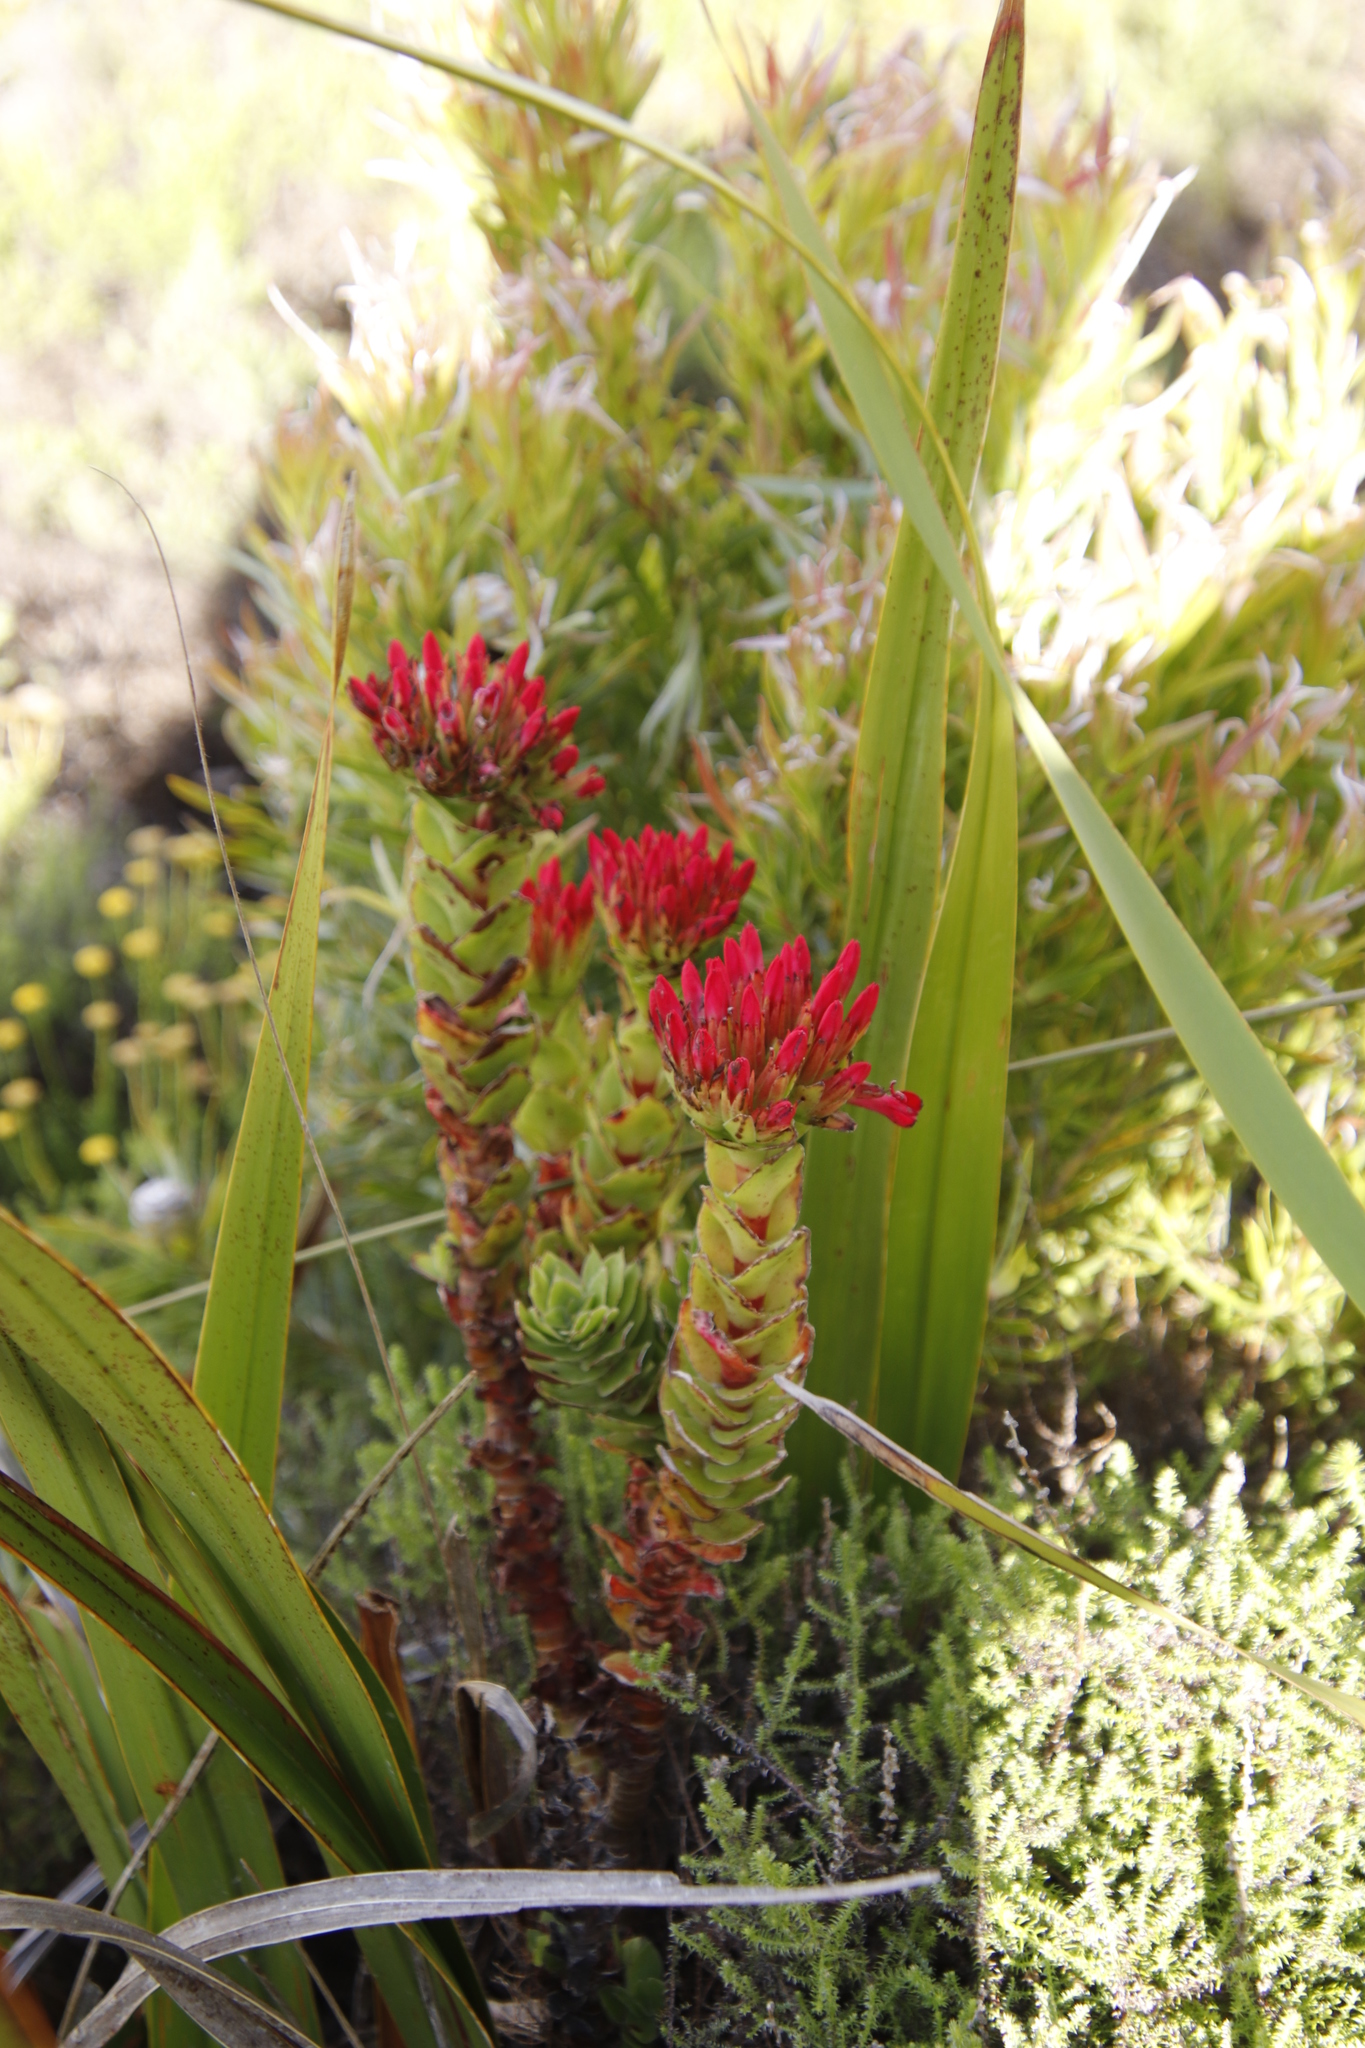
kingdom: Plantae
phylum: Tracheophyta
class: Magnoliopsida
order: Saxifragales
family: Crassulaceae
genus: Crassula
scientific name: Crassula coccinea
